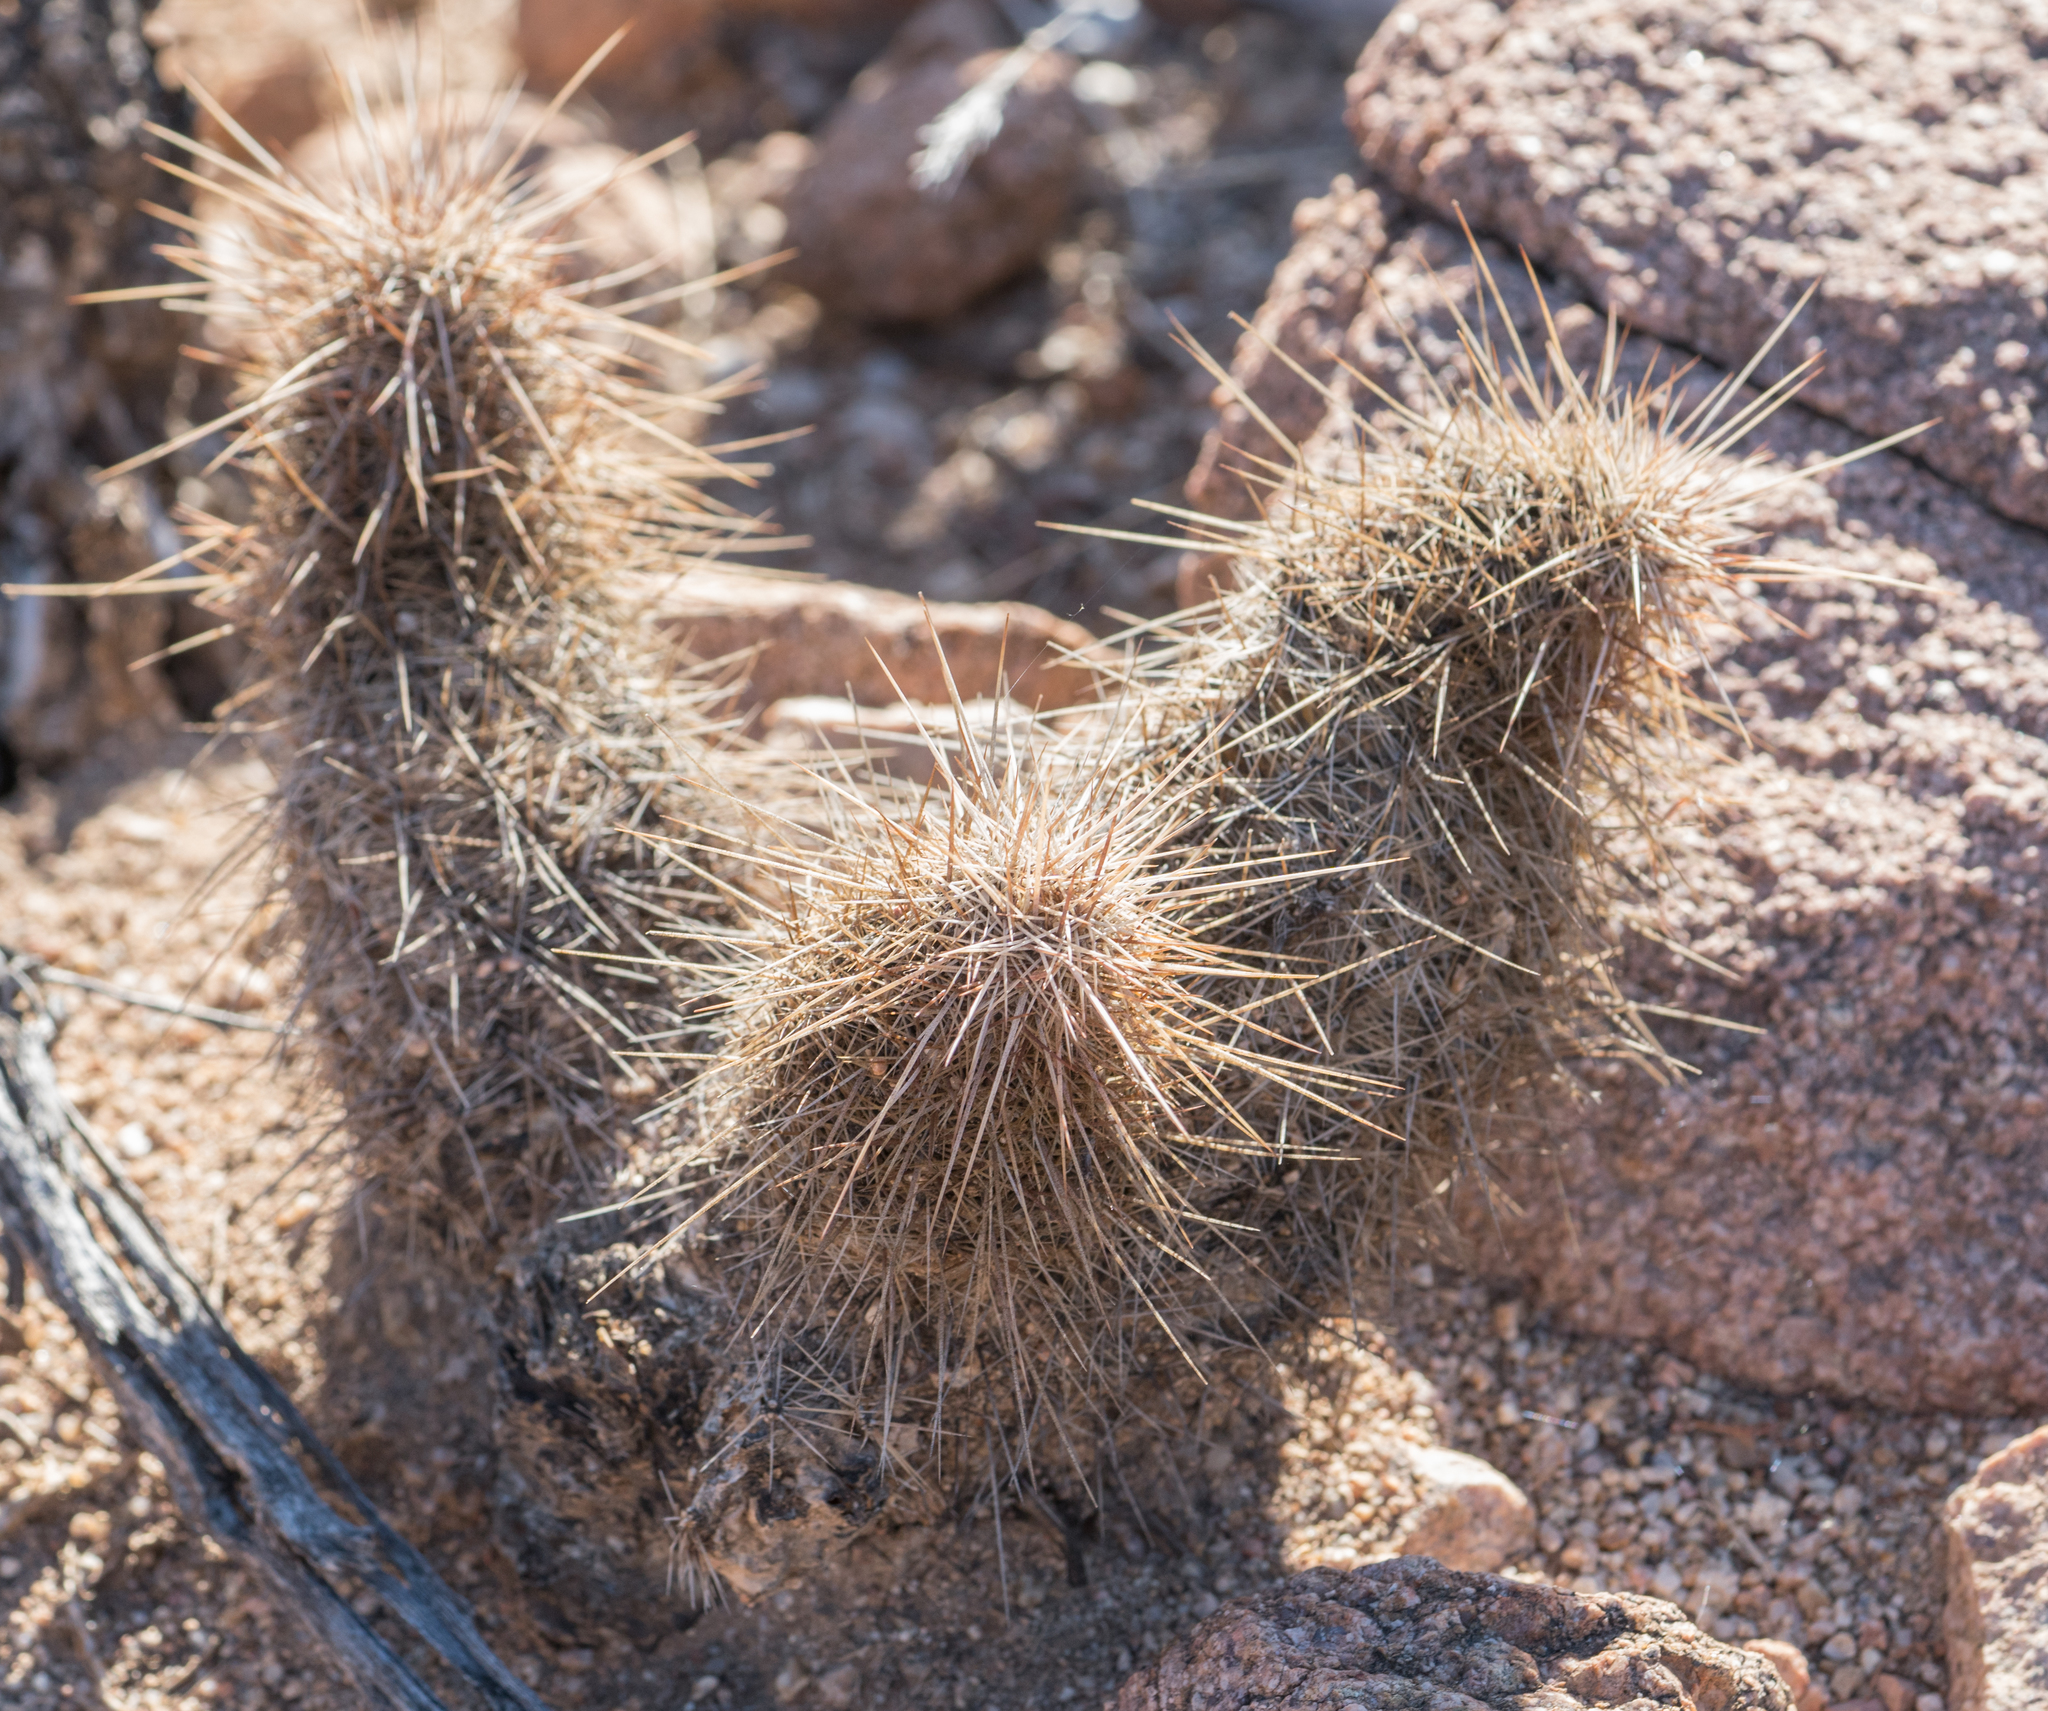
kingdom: Plantae
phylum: Tracheophyta
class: Magnoliopsida
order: Caryophyllales
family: Cactaceae
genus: Echinocereus
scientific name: Echinocereus fasciculatus
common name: Bundle hedgehog
